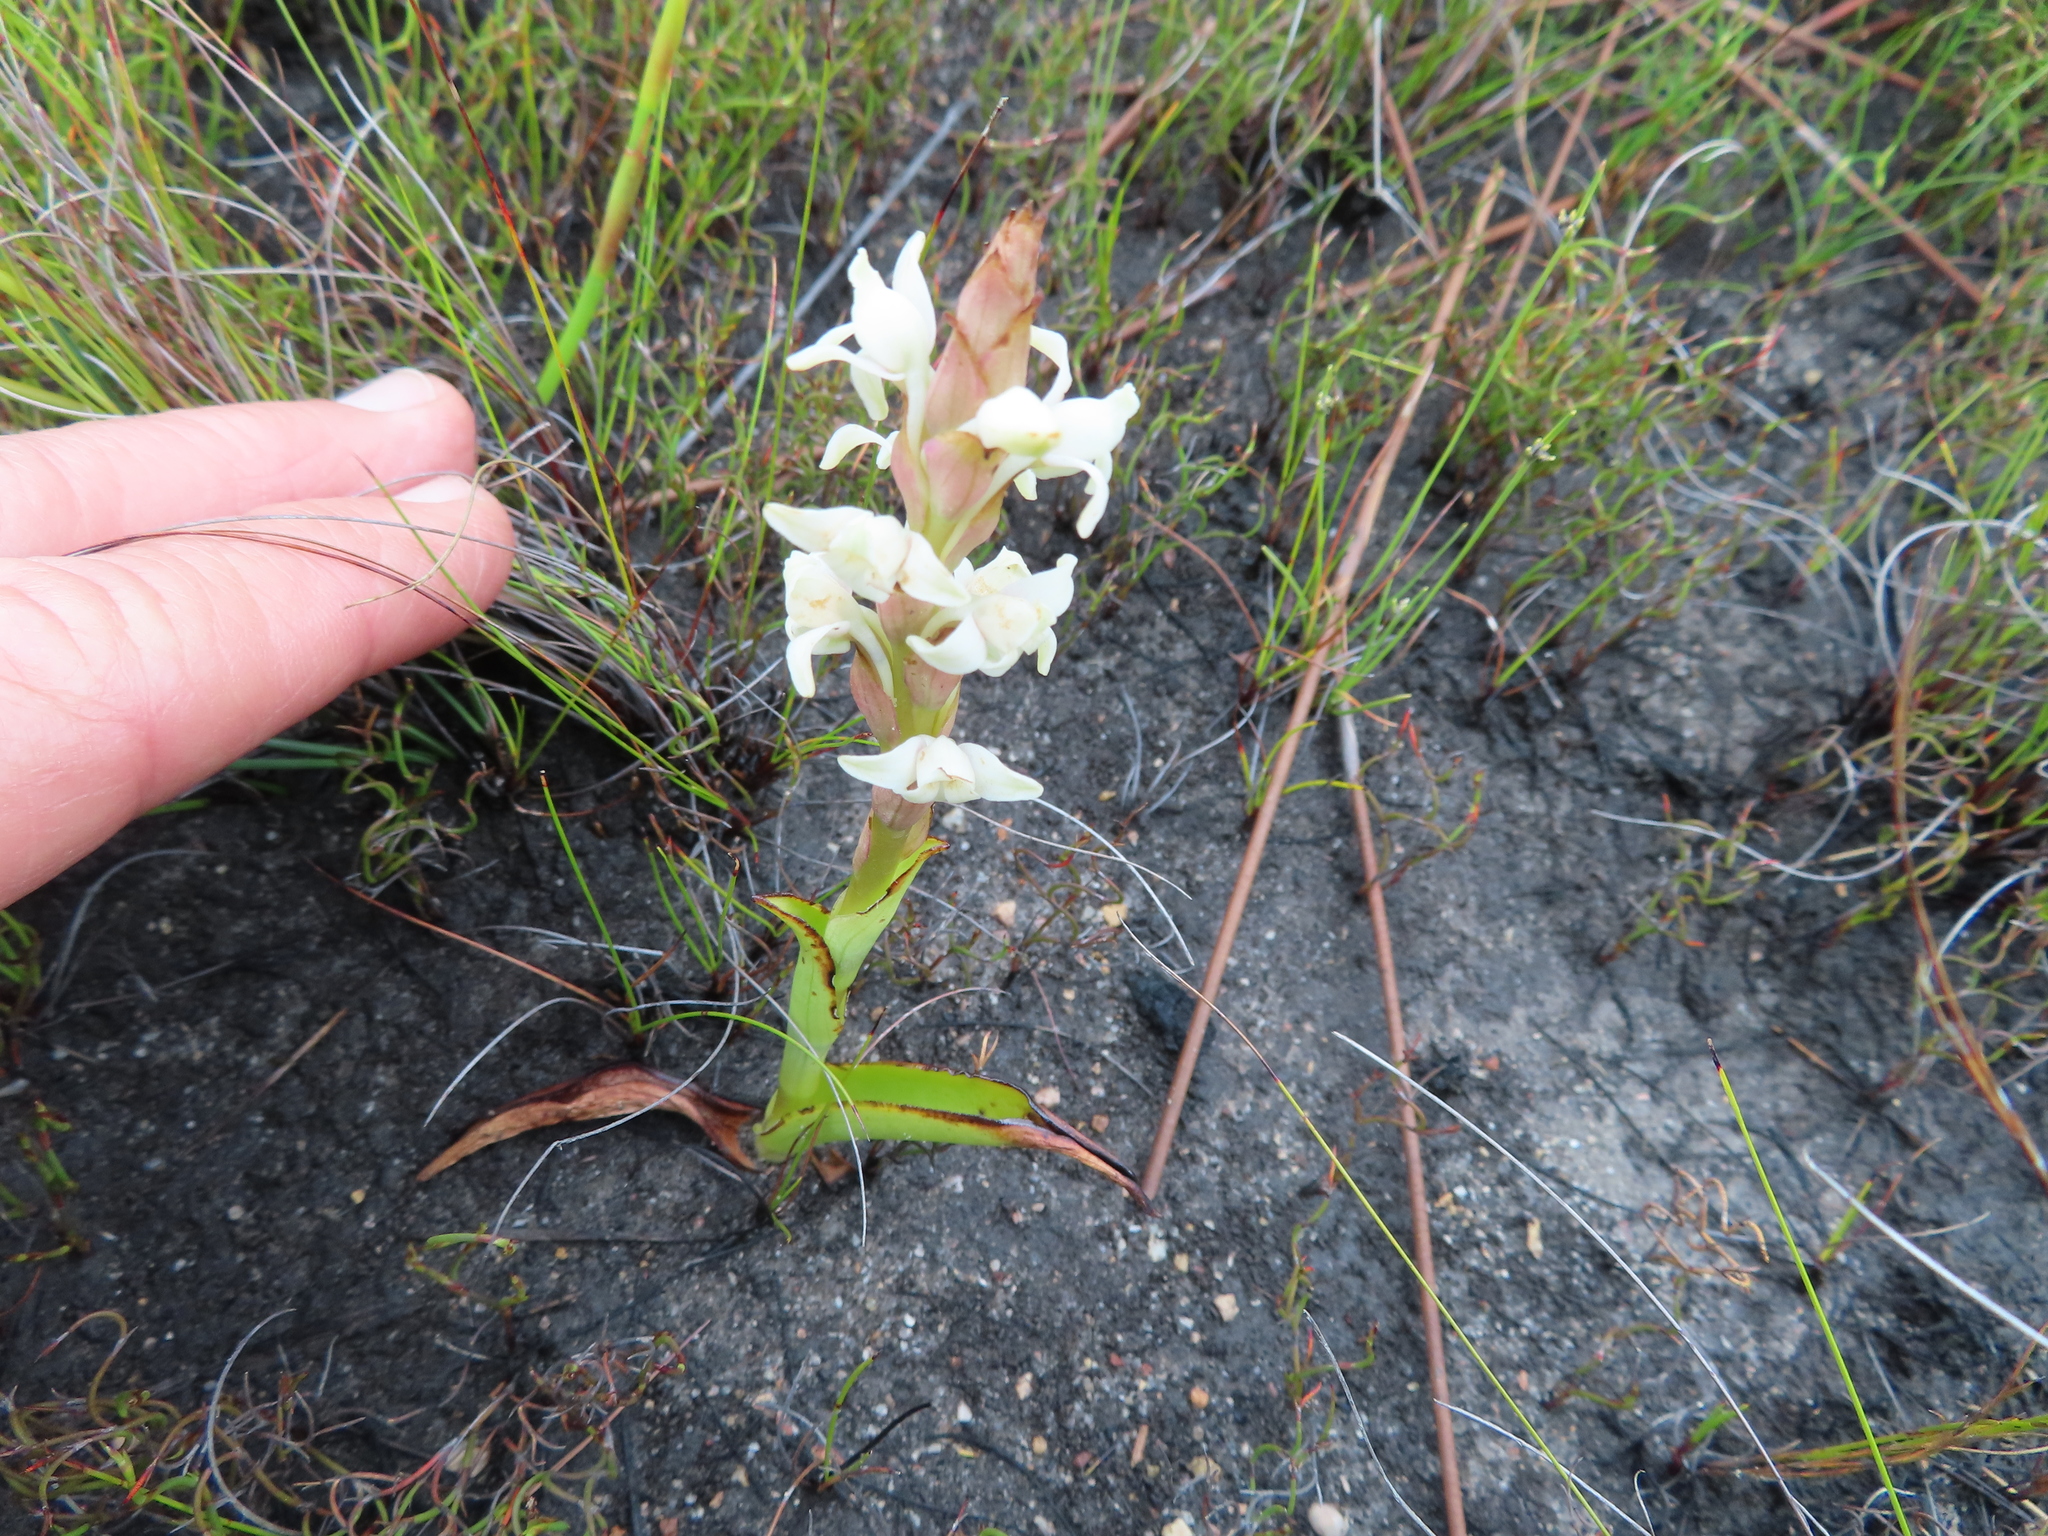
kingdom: Plantae
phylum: Tracheophyta
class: Liliopsida
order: Asparagales
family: Orchidaceae
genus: Satyrium
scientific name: Satyrium stenopetalum
